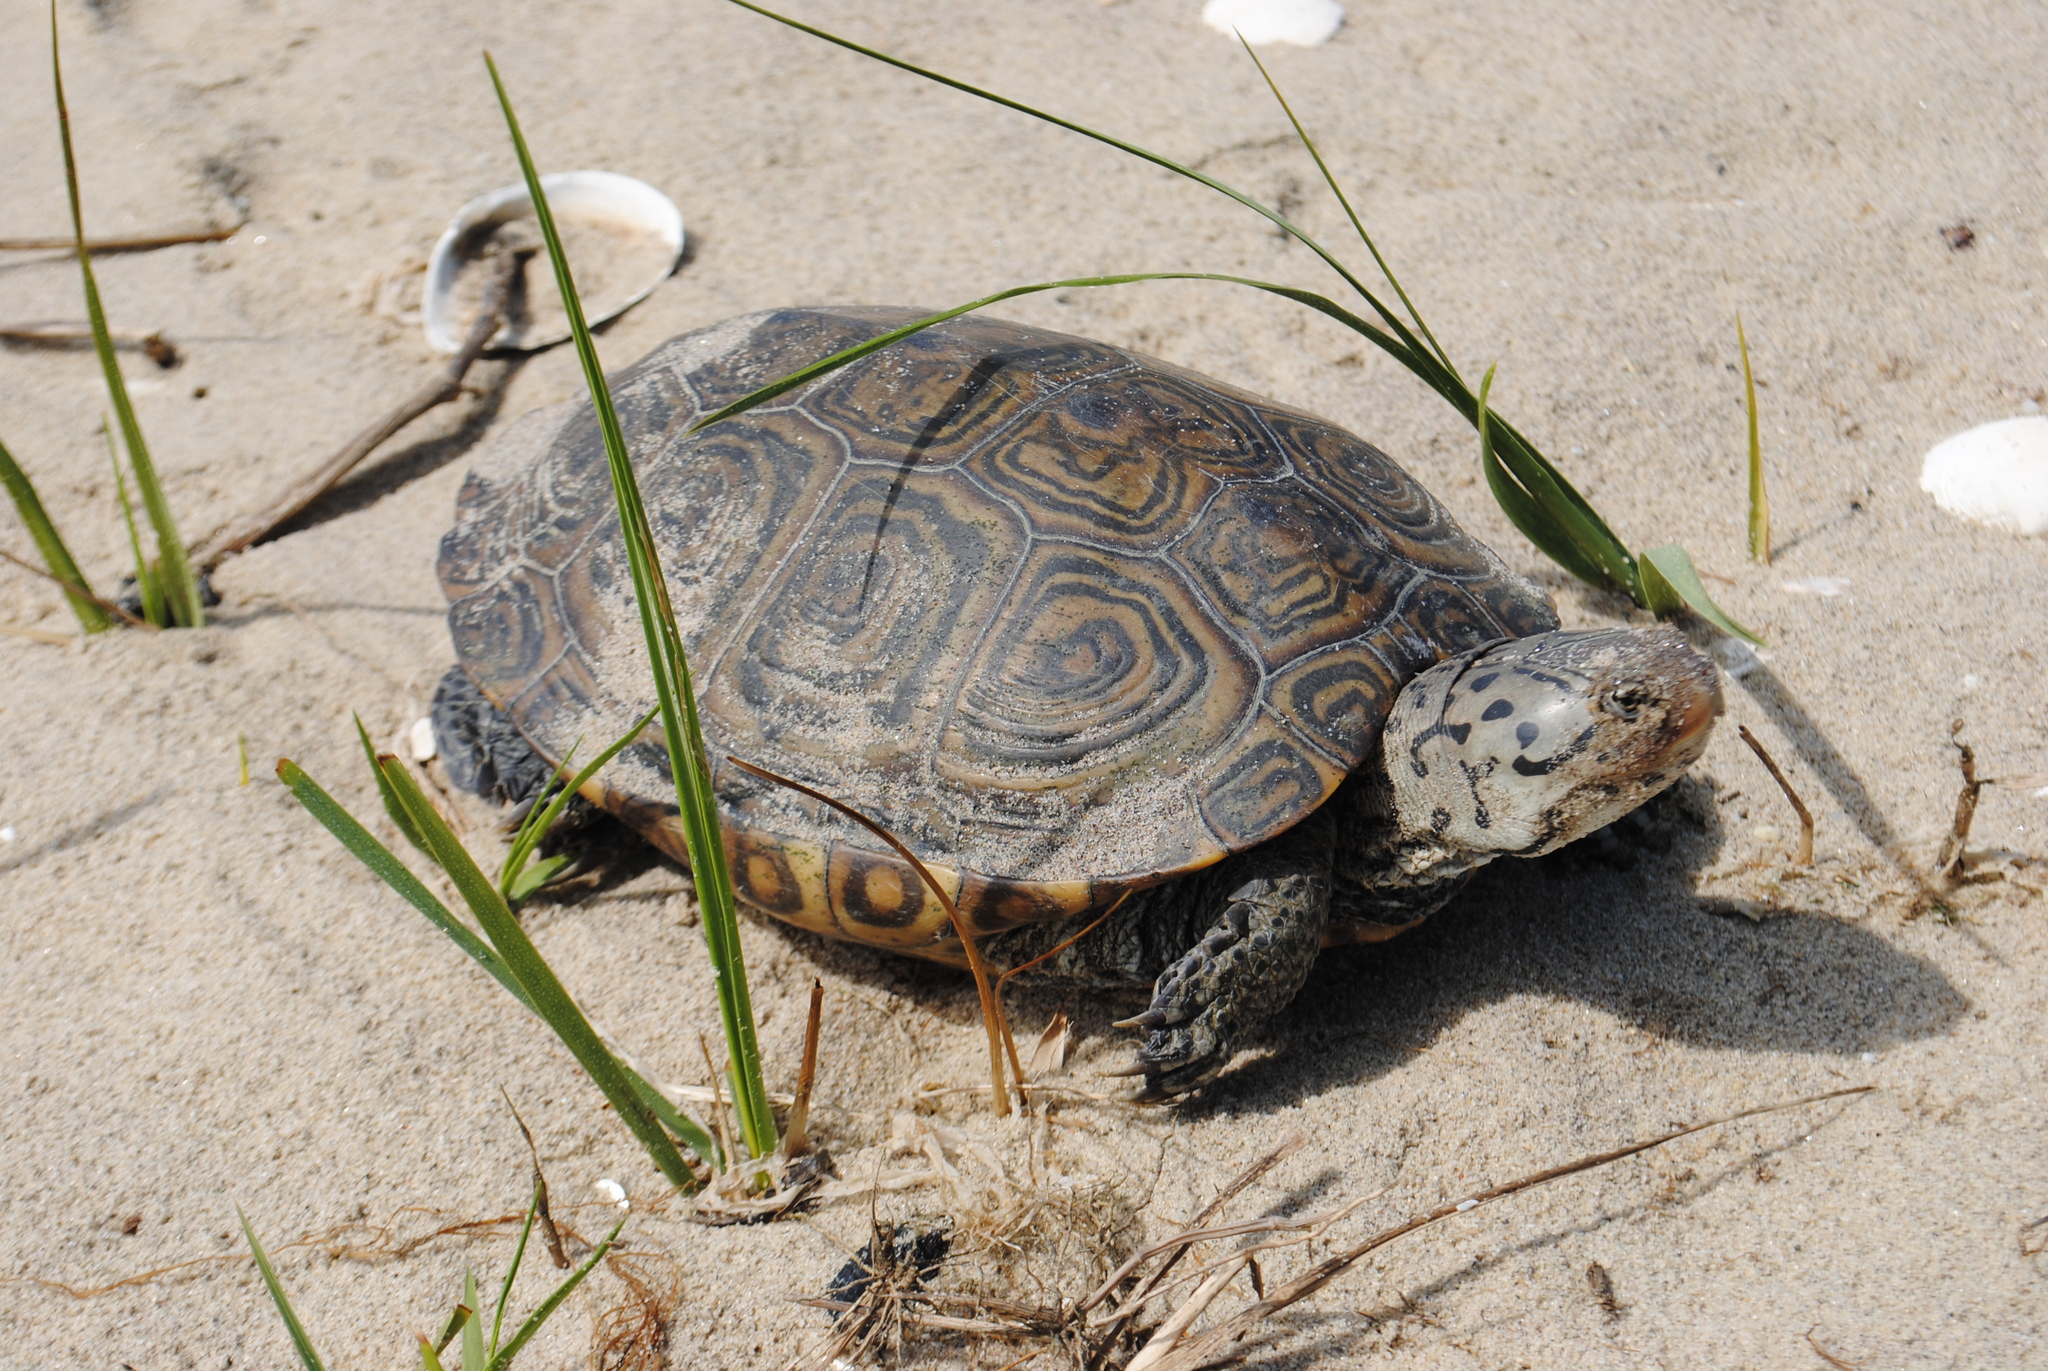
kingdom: Animalia
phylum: Chordata
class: Testudines
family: Emydidae
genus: Malaclemys
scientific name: Malaclemys terrapin
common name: Diamondback terrapin
